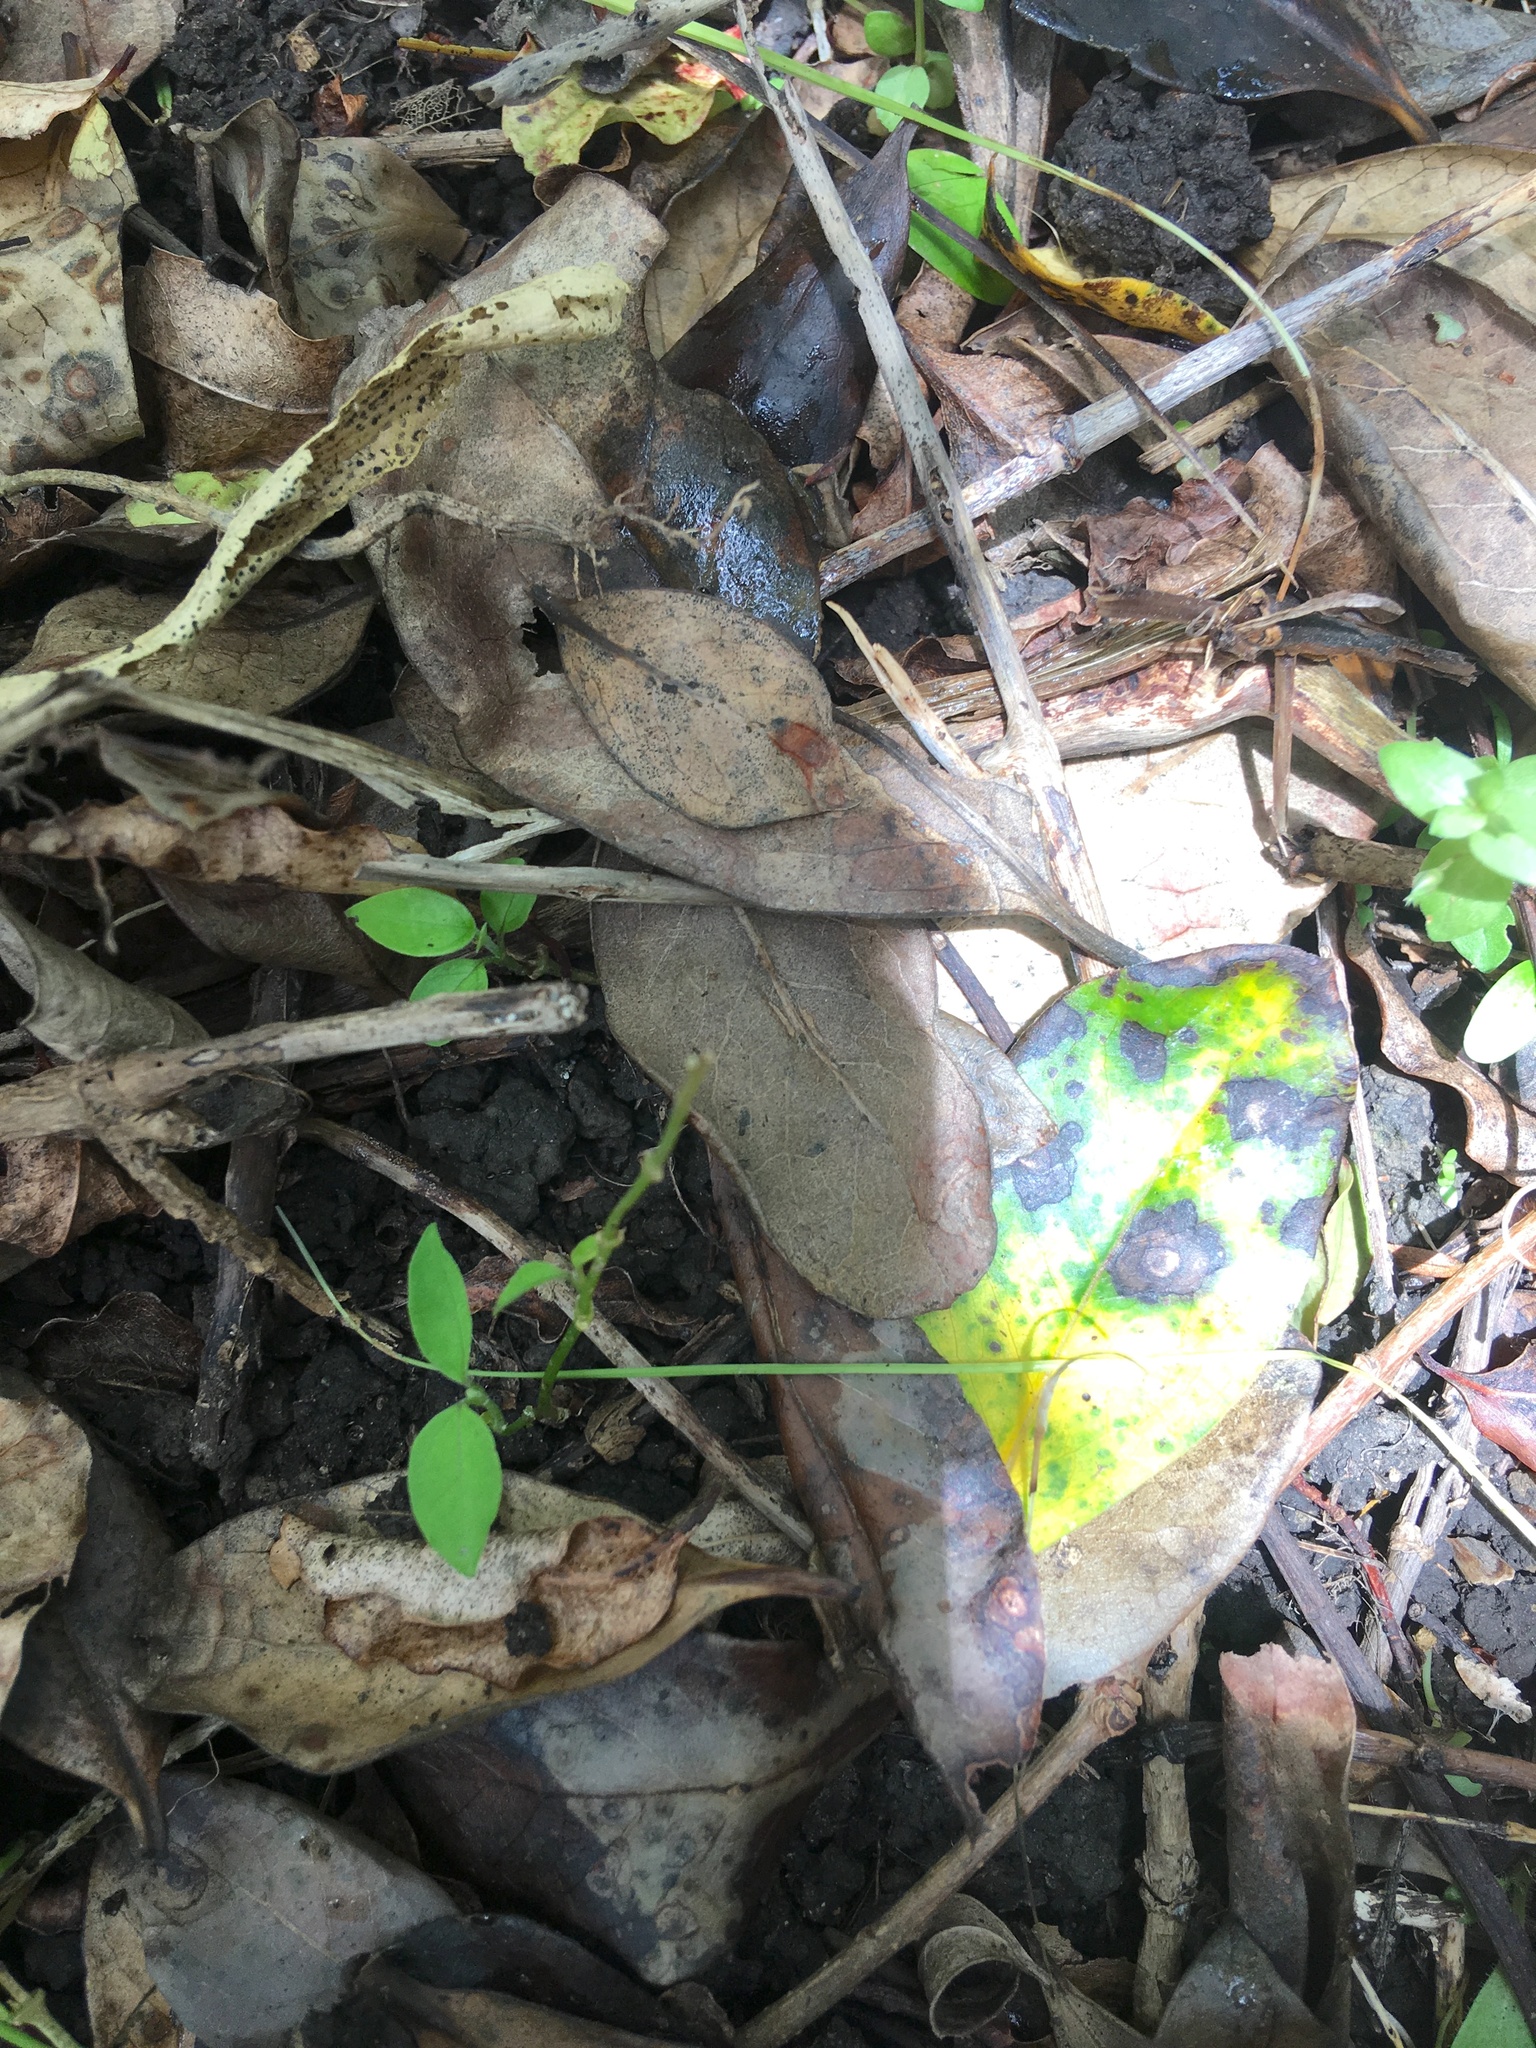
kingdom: Plantae
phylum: Tracheophyta
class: Magnoliopsida
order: Gentianales
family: Apocynaceae
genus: Araujia
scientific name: Araujia sericifera
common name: White bladderflower
